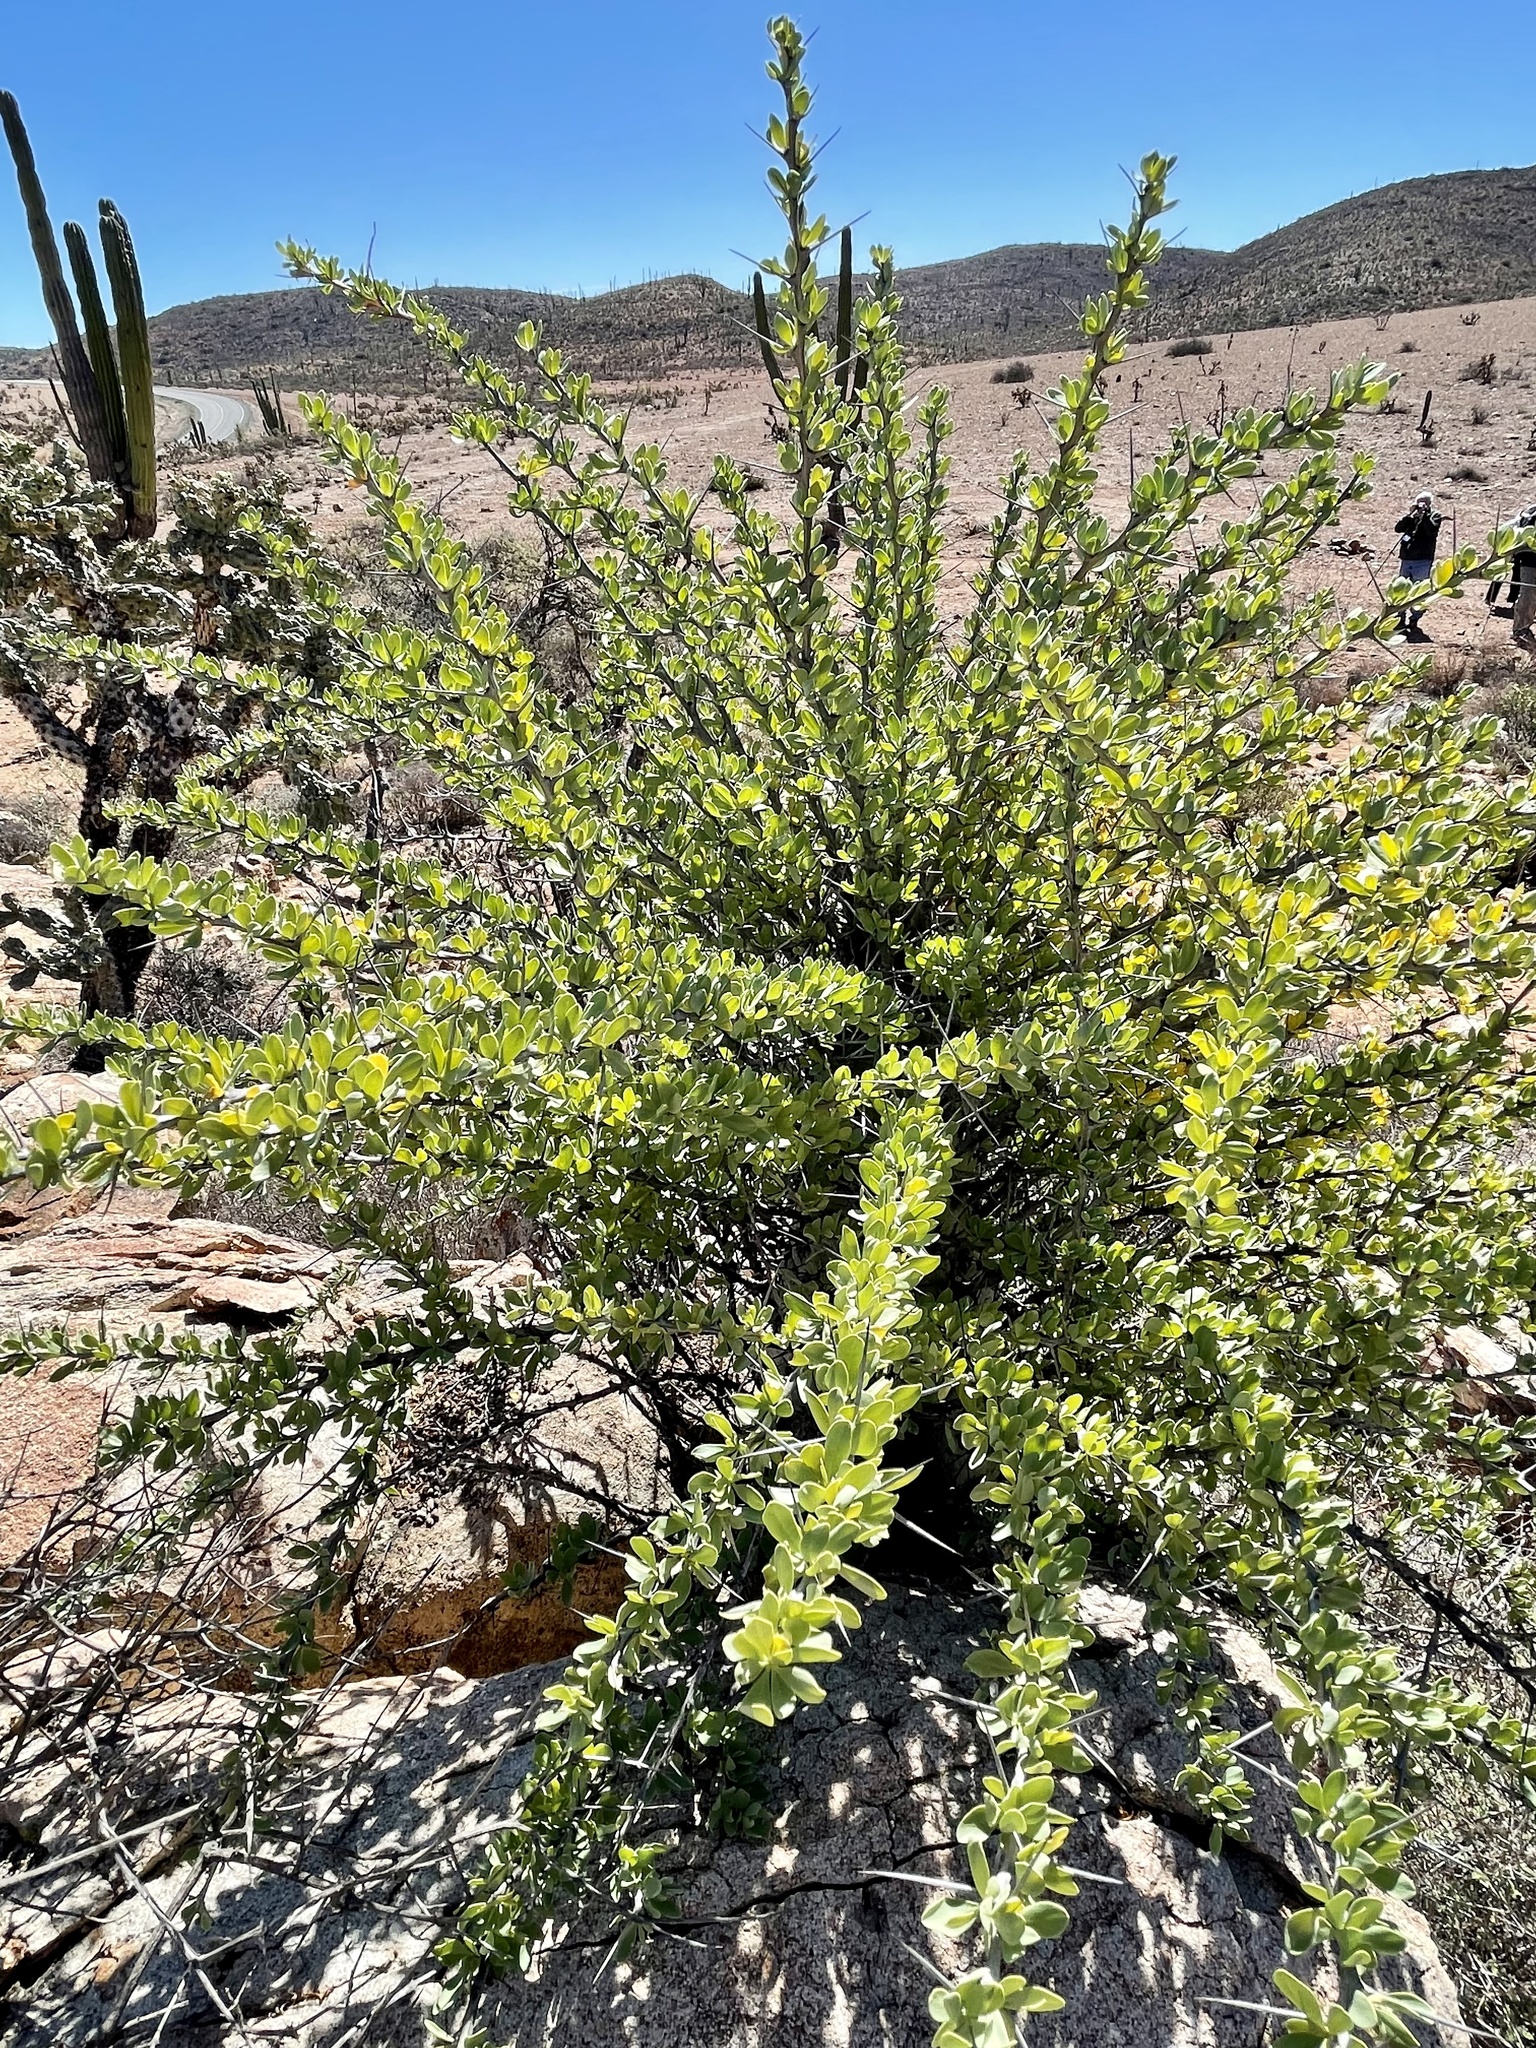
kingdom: Plantae
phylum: Tracheophyta
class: Magnoliopsida
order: Ericales
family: Fouquieriaceae
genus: Fouquieria
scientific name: Fouquieria columnaris
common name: Boojumtree
